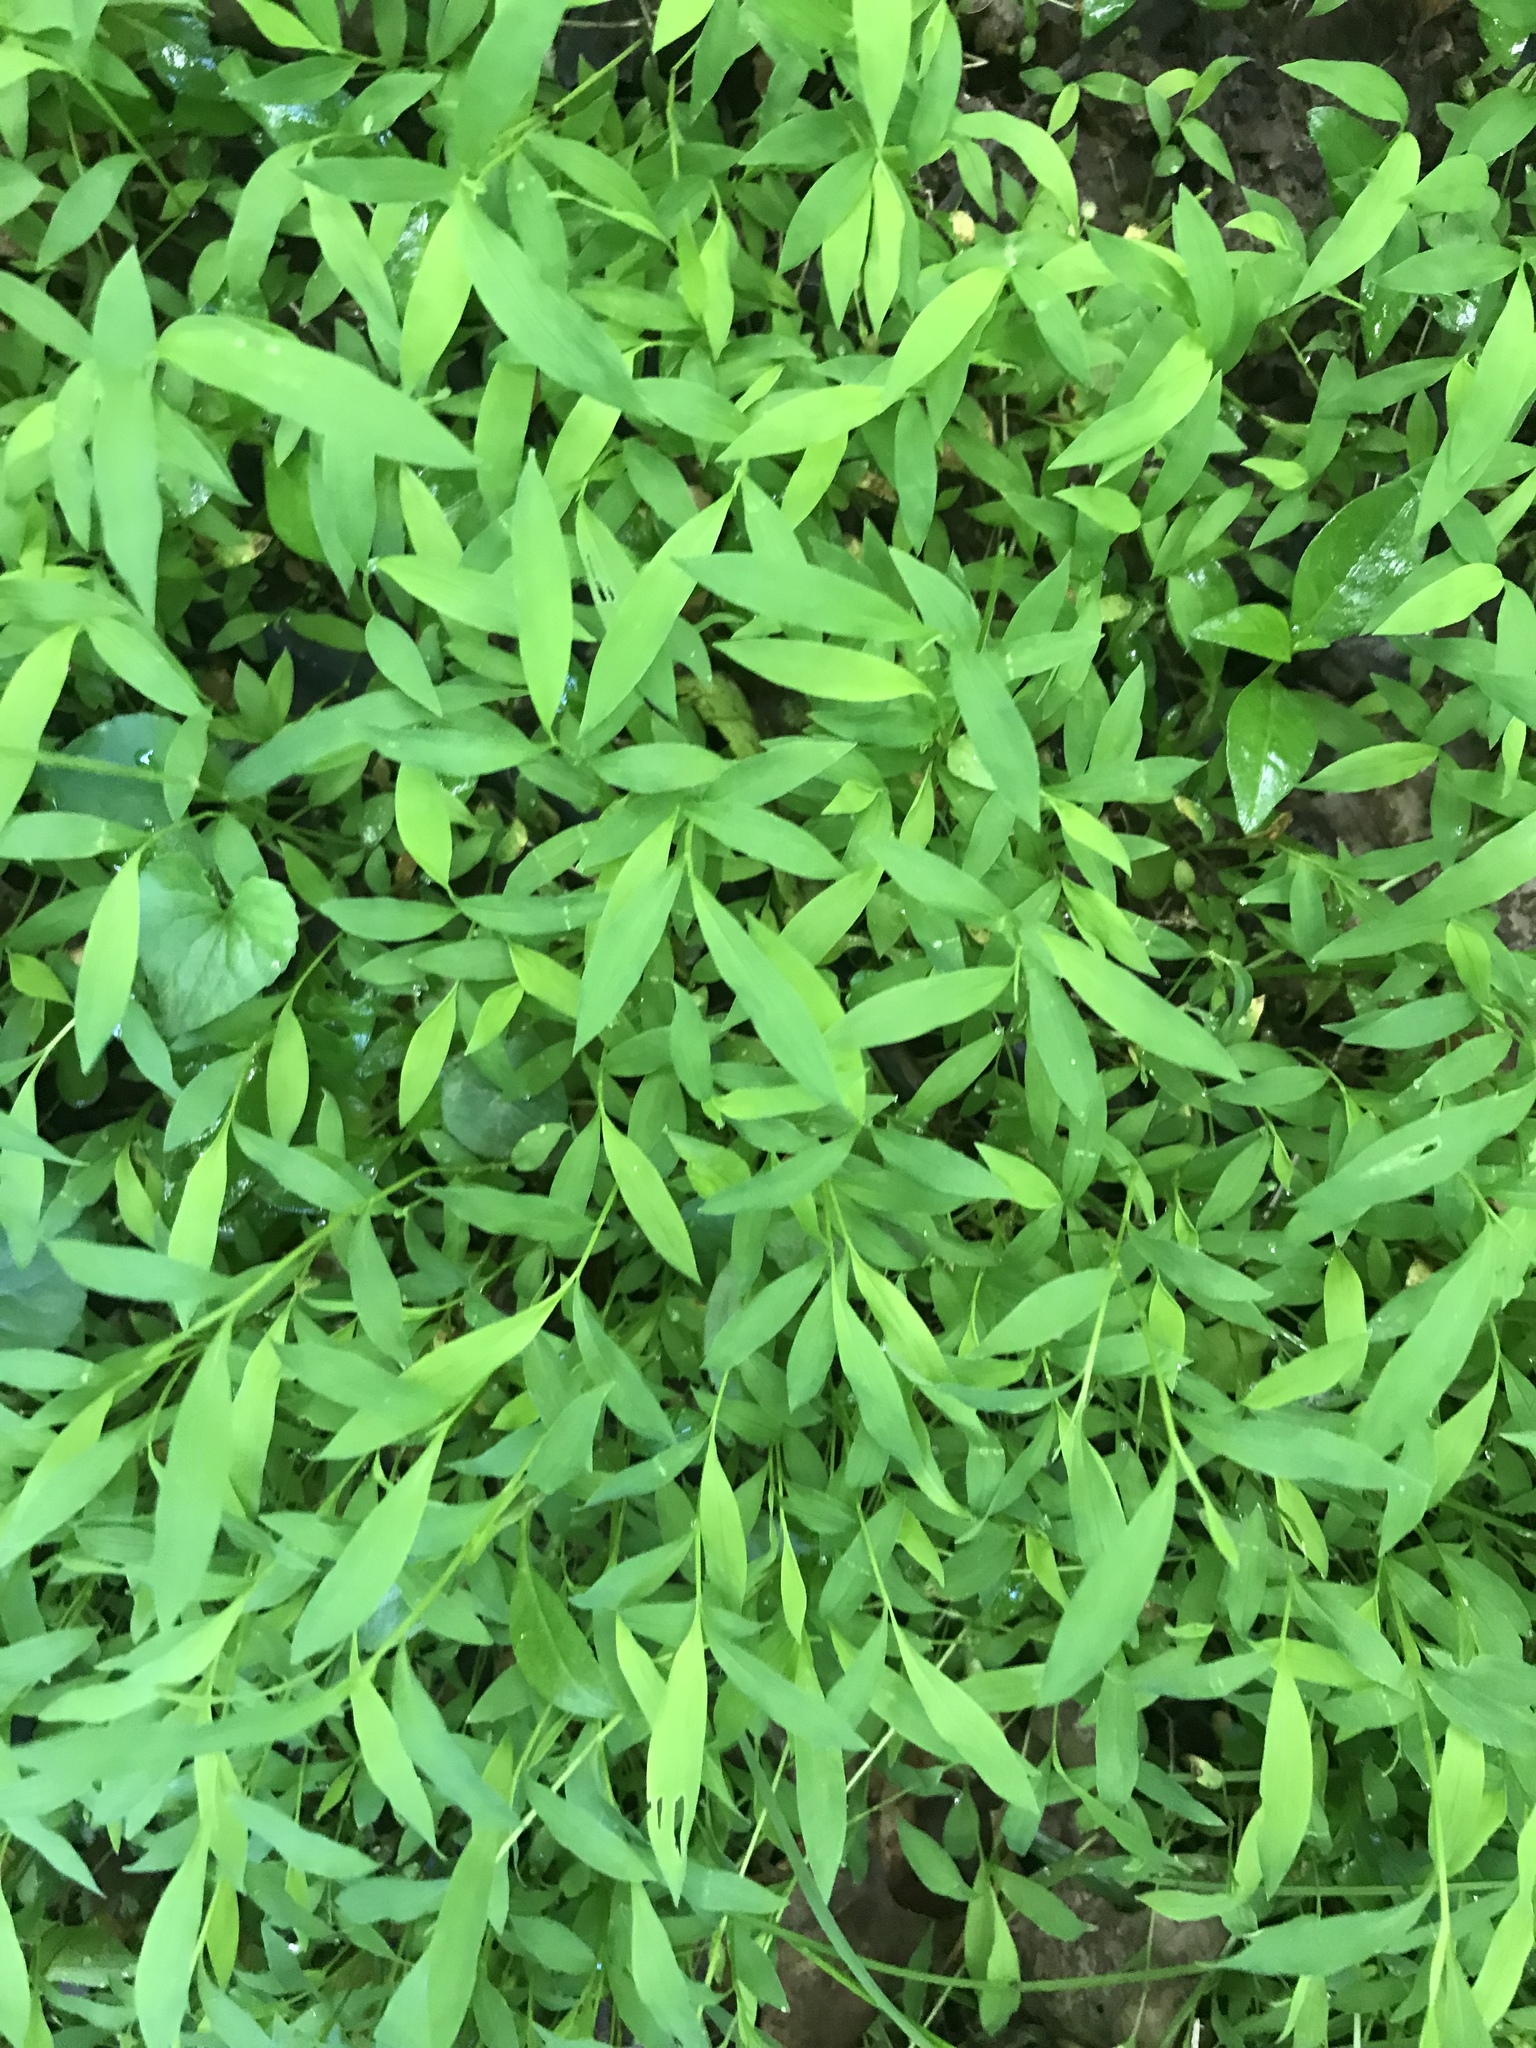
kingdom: Plantae
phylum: Tracheophyta
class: Liliopsida
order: Poales
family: Poaceae
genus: Microstegium
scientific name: Microstegium vimineum
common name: Japanese stiltgrass
